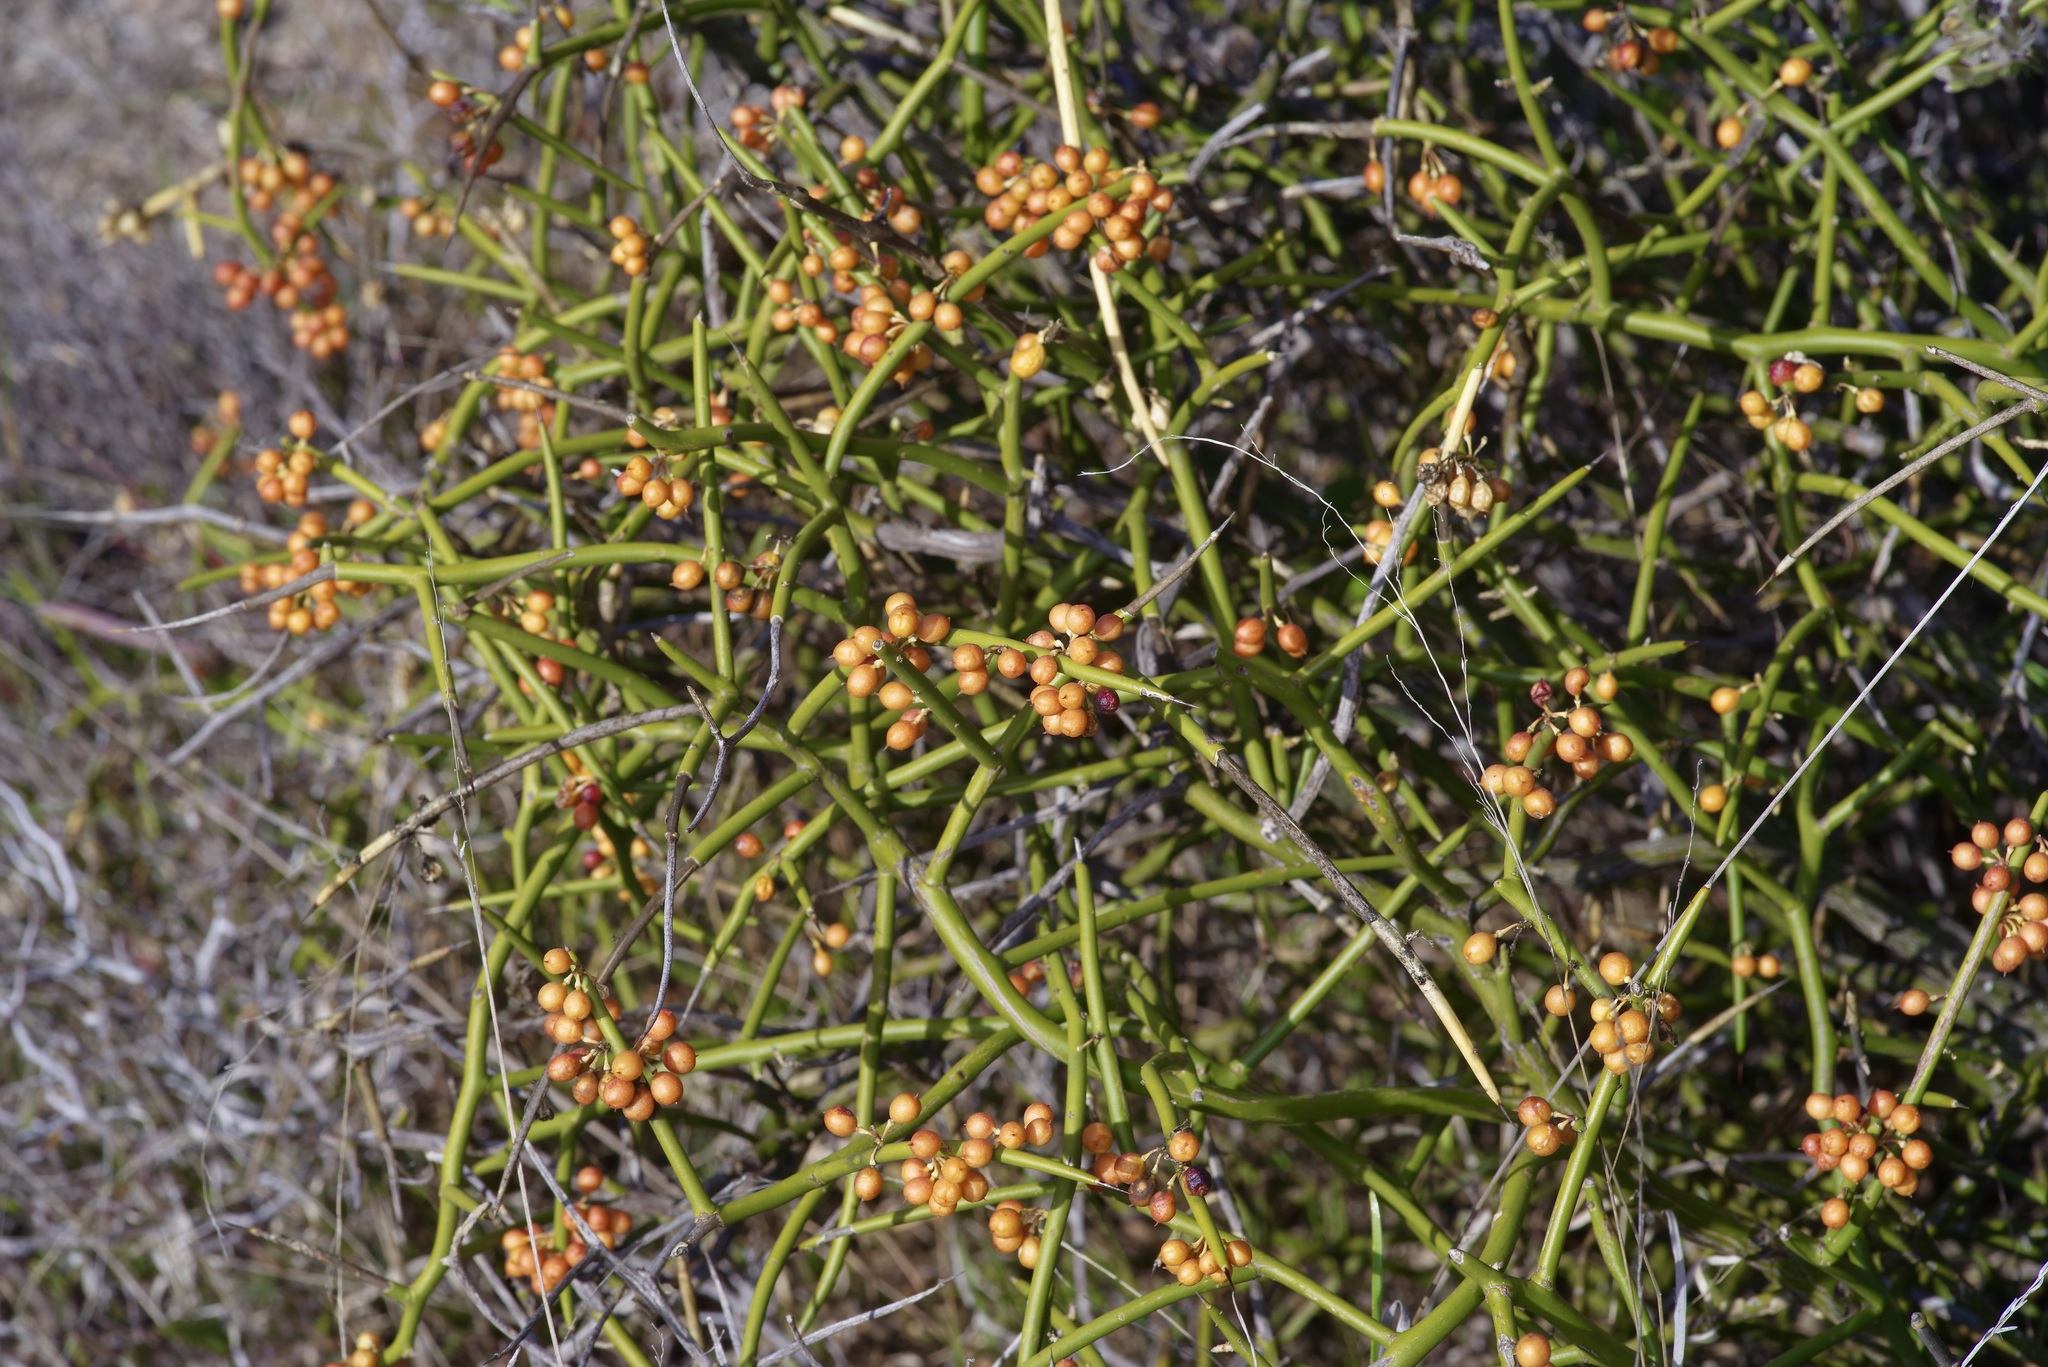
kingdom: Plantae
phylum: Tracheophyta
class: Magnoliopsida
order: Brassicales
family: Koeberliniaceae
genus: Koeberlinia
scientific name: Koeberlinia spinosa
